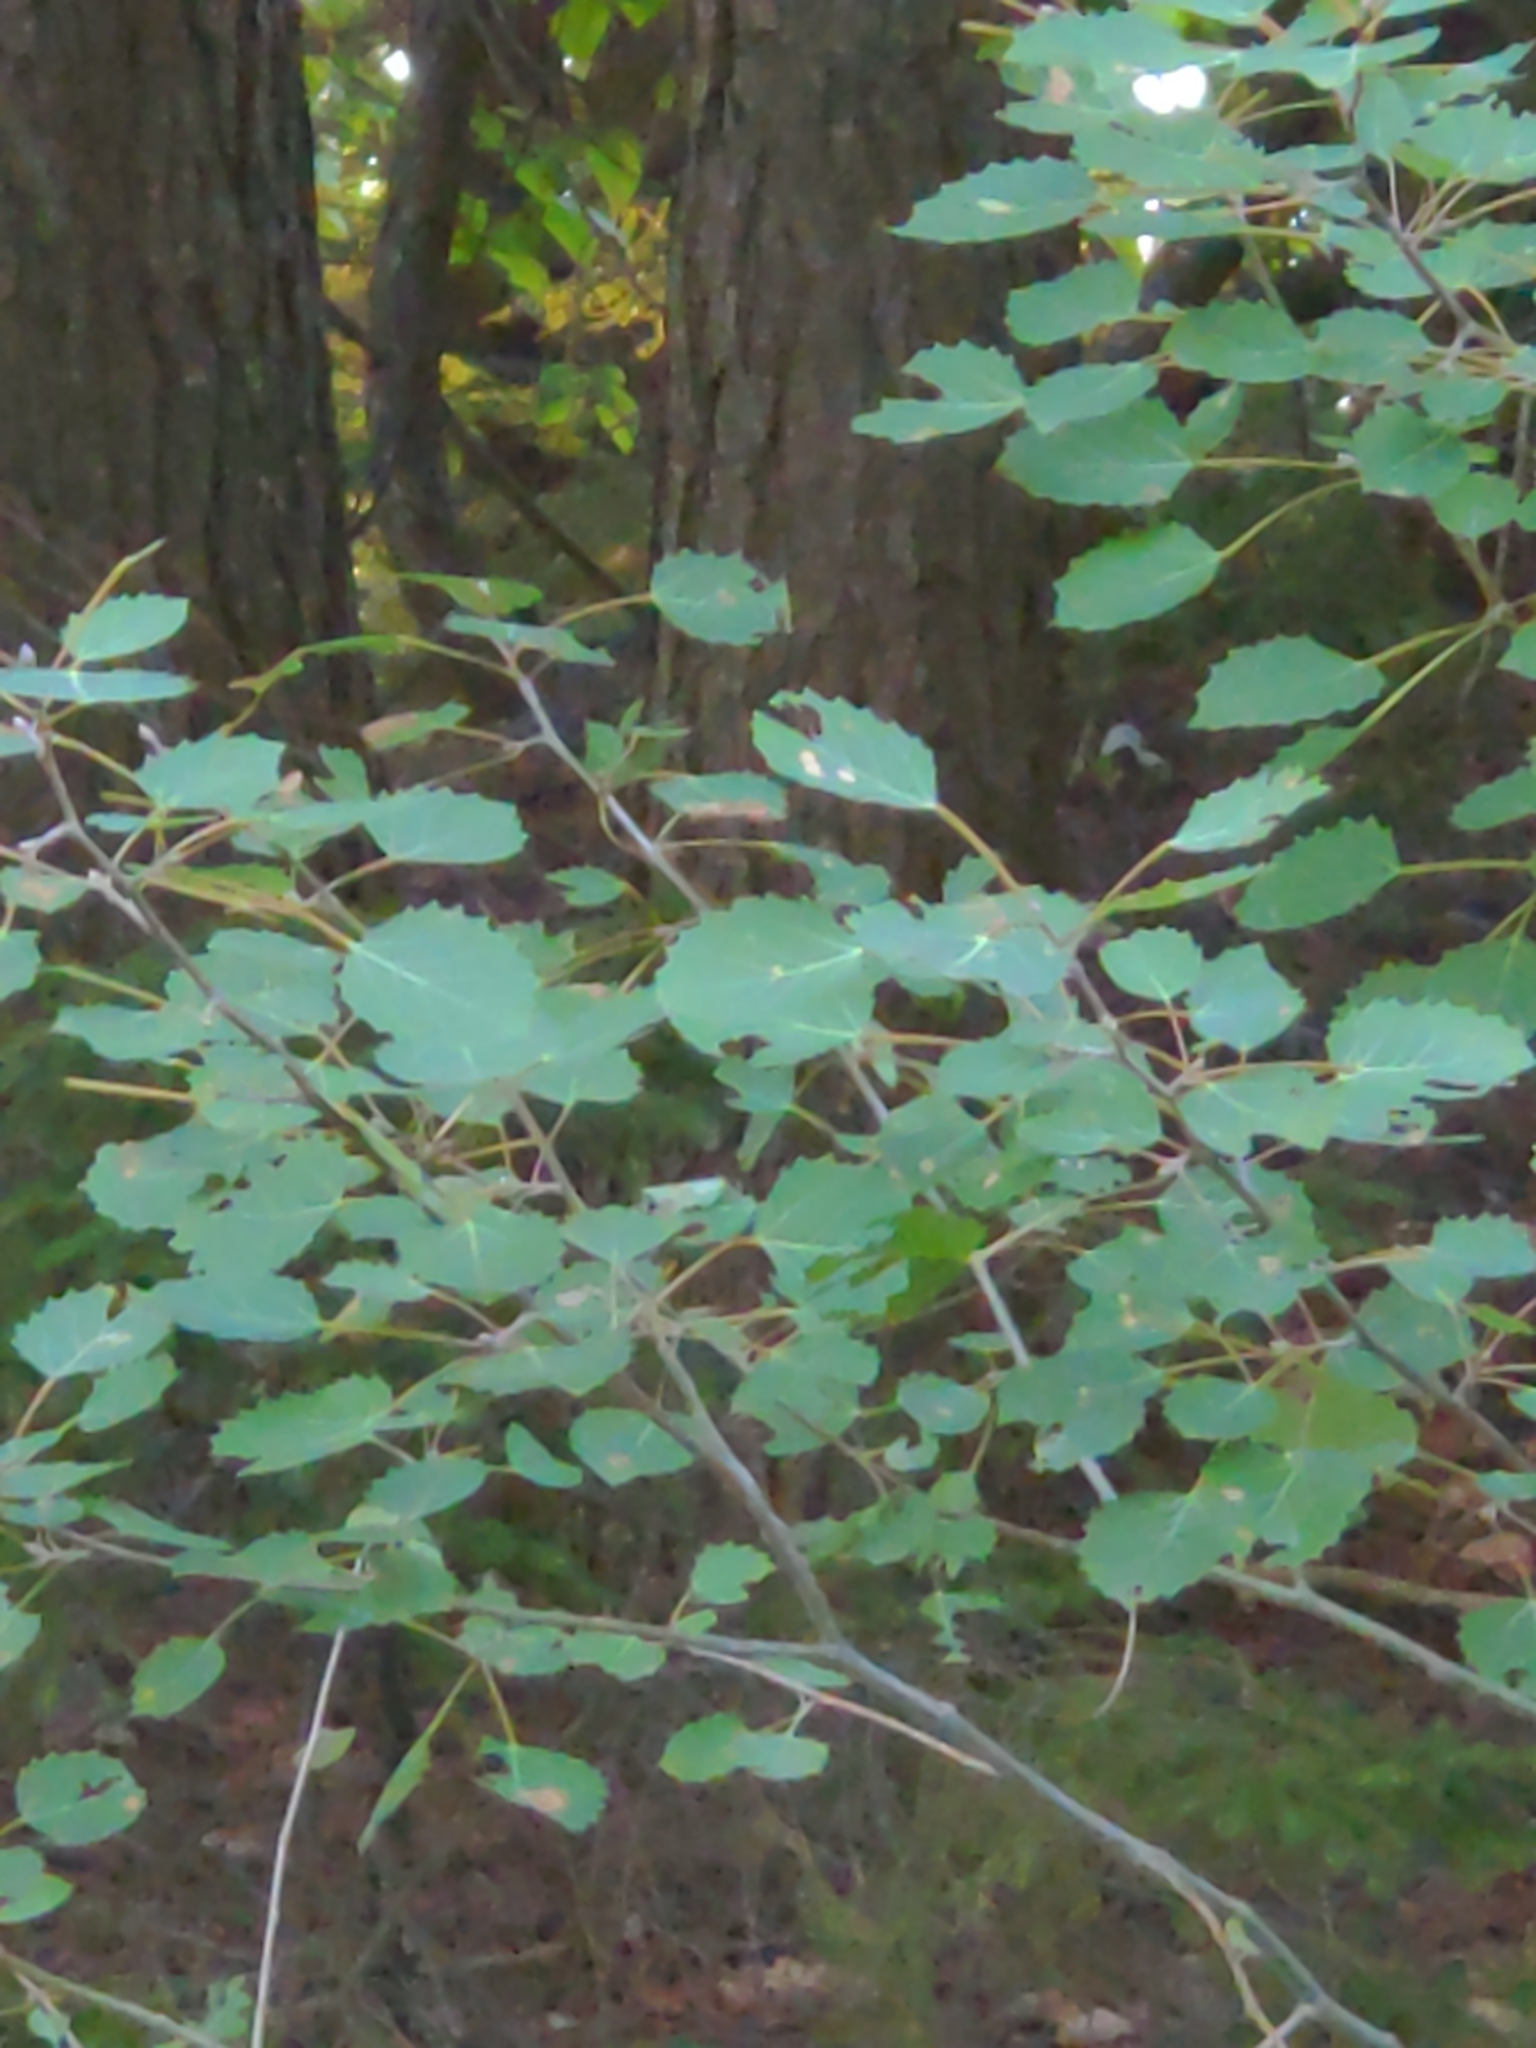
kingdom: Plantae
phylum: Tracheophyta
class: Magnoliopsida
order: Malpighiales
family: Salicaceae
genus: Populus
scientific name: Populus grandidentata
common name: Bigtooth aspen
